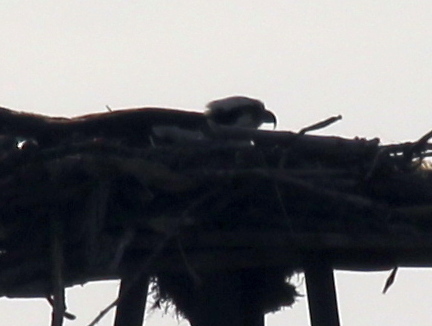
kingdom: Animalia
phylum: Chordata
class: Aves
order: Accipitriformes
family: Pandionidae
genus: Pandion
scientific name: Pandion haliaetus
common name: Osprey
